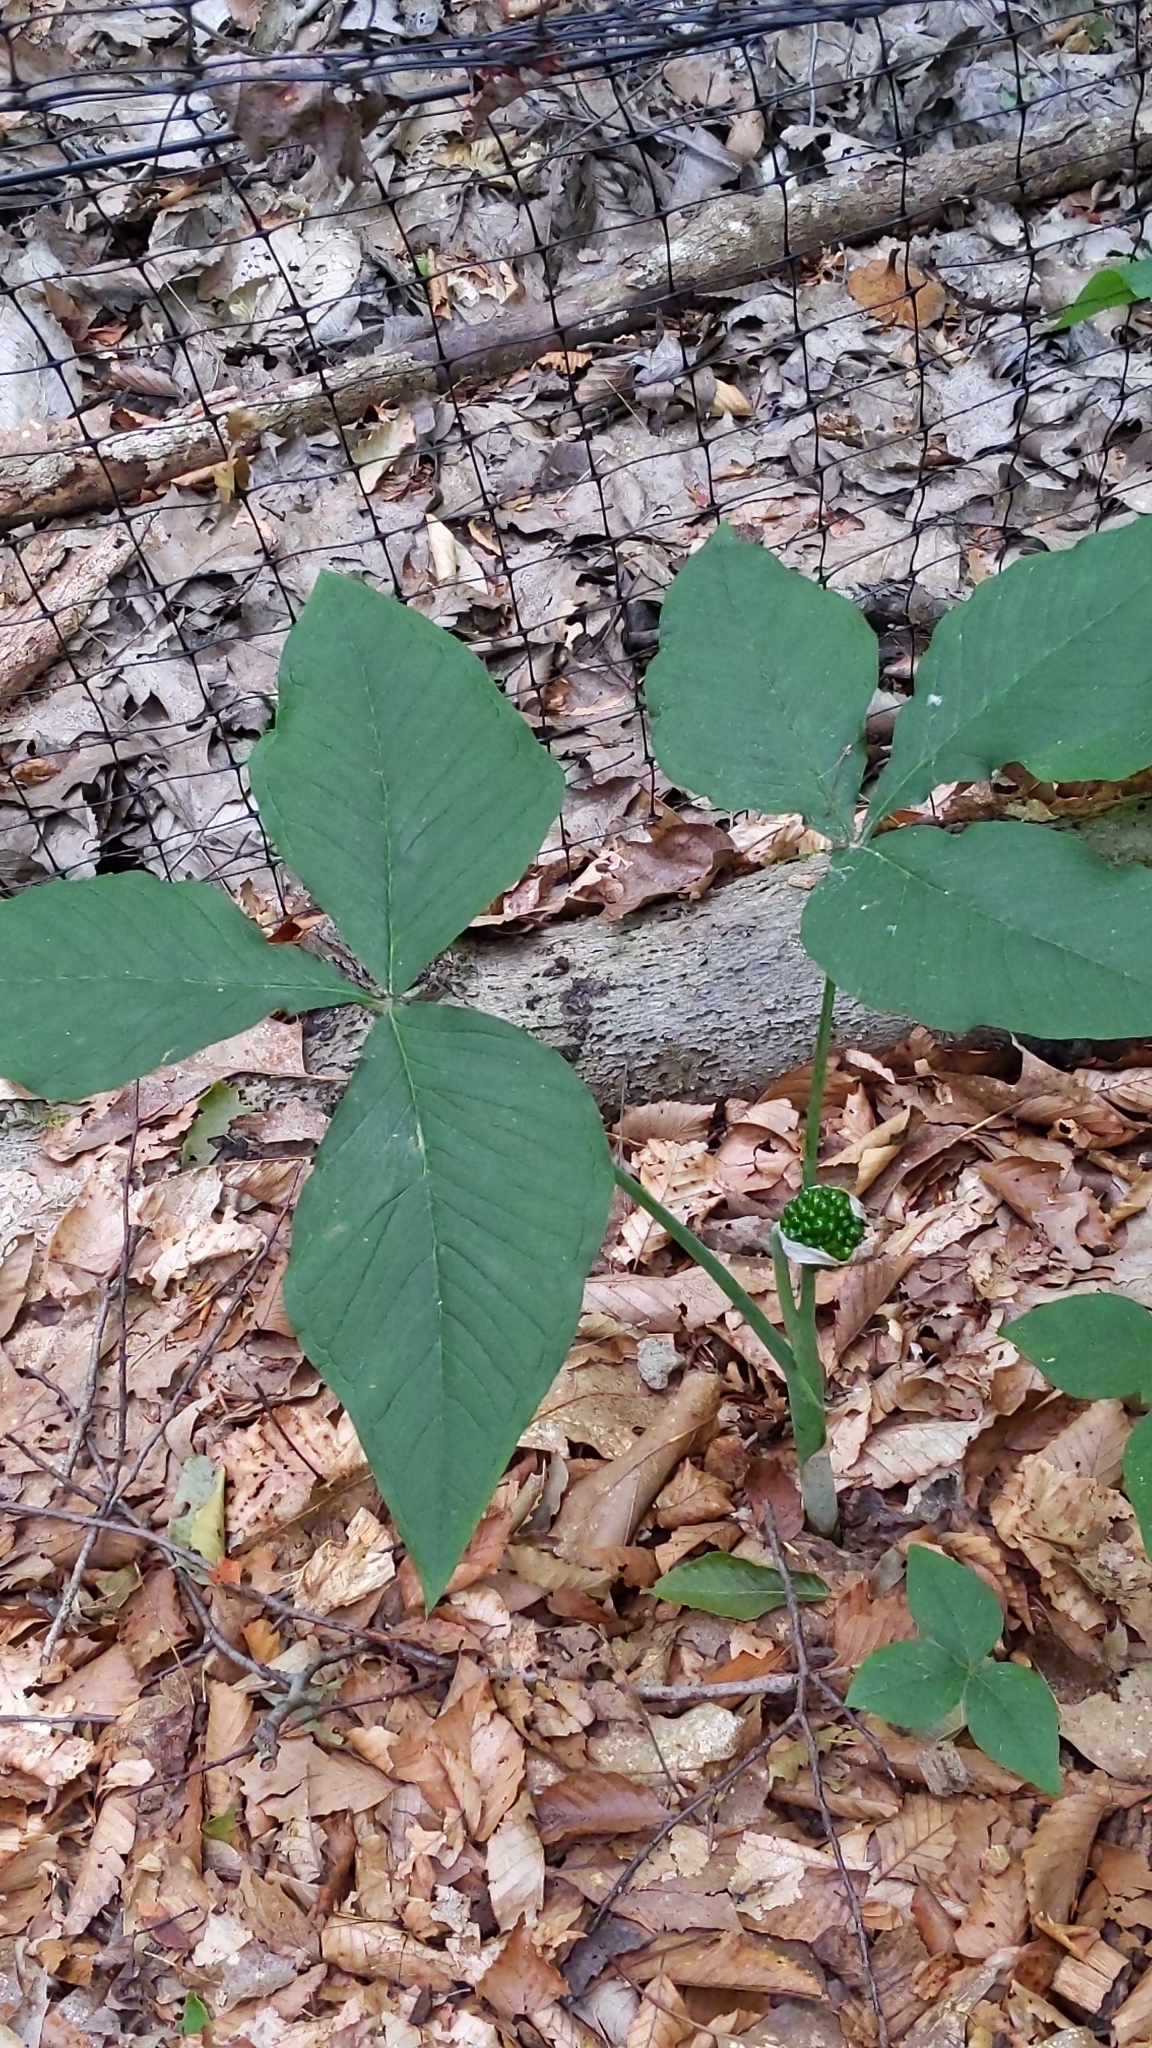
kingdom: Plantae
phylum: Tracheophyta
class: Liliopsida
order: Alismatales
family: Araceae
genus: Arisaema
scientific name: Arisaema triphyllum
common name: Jack-in-the-pulpit
